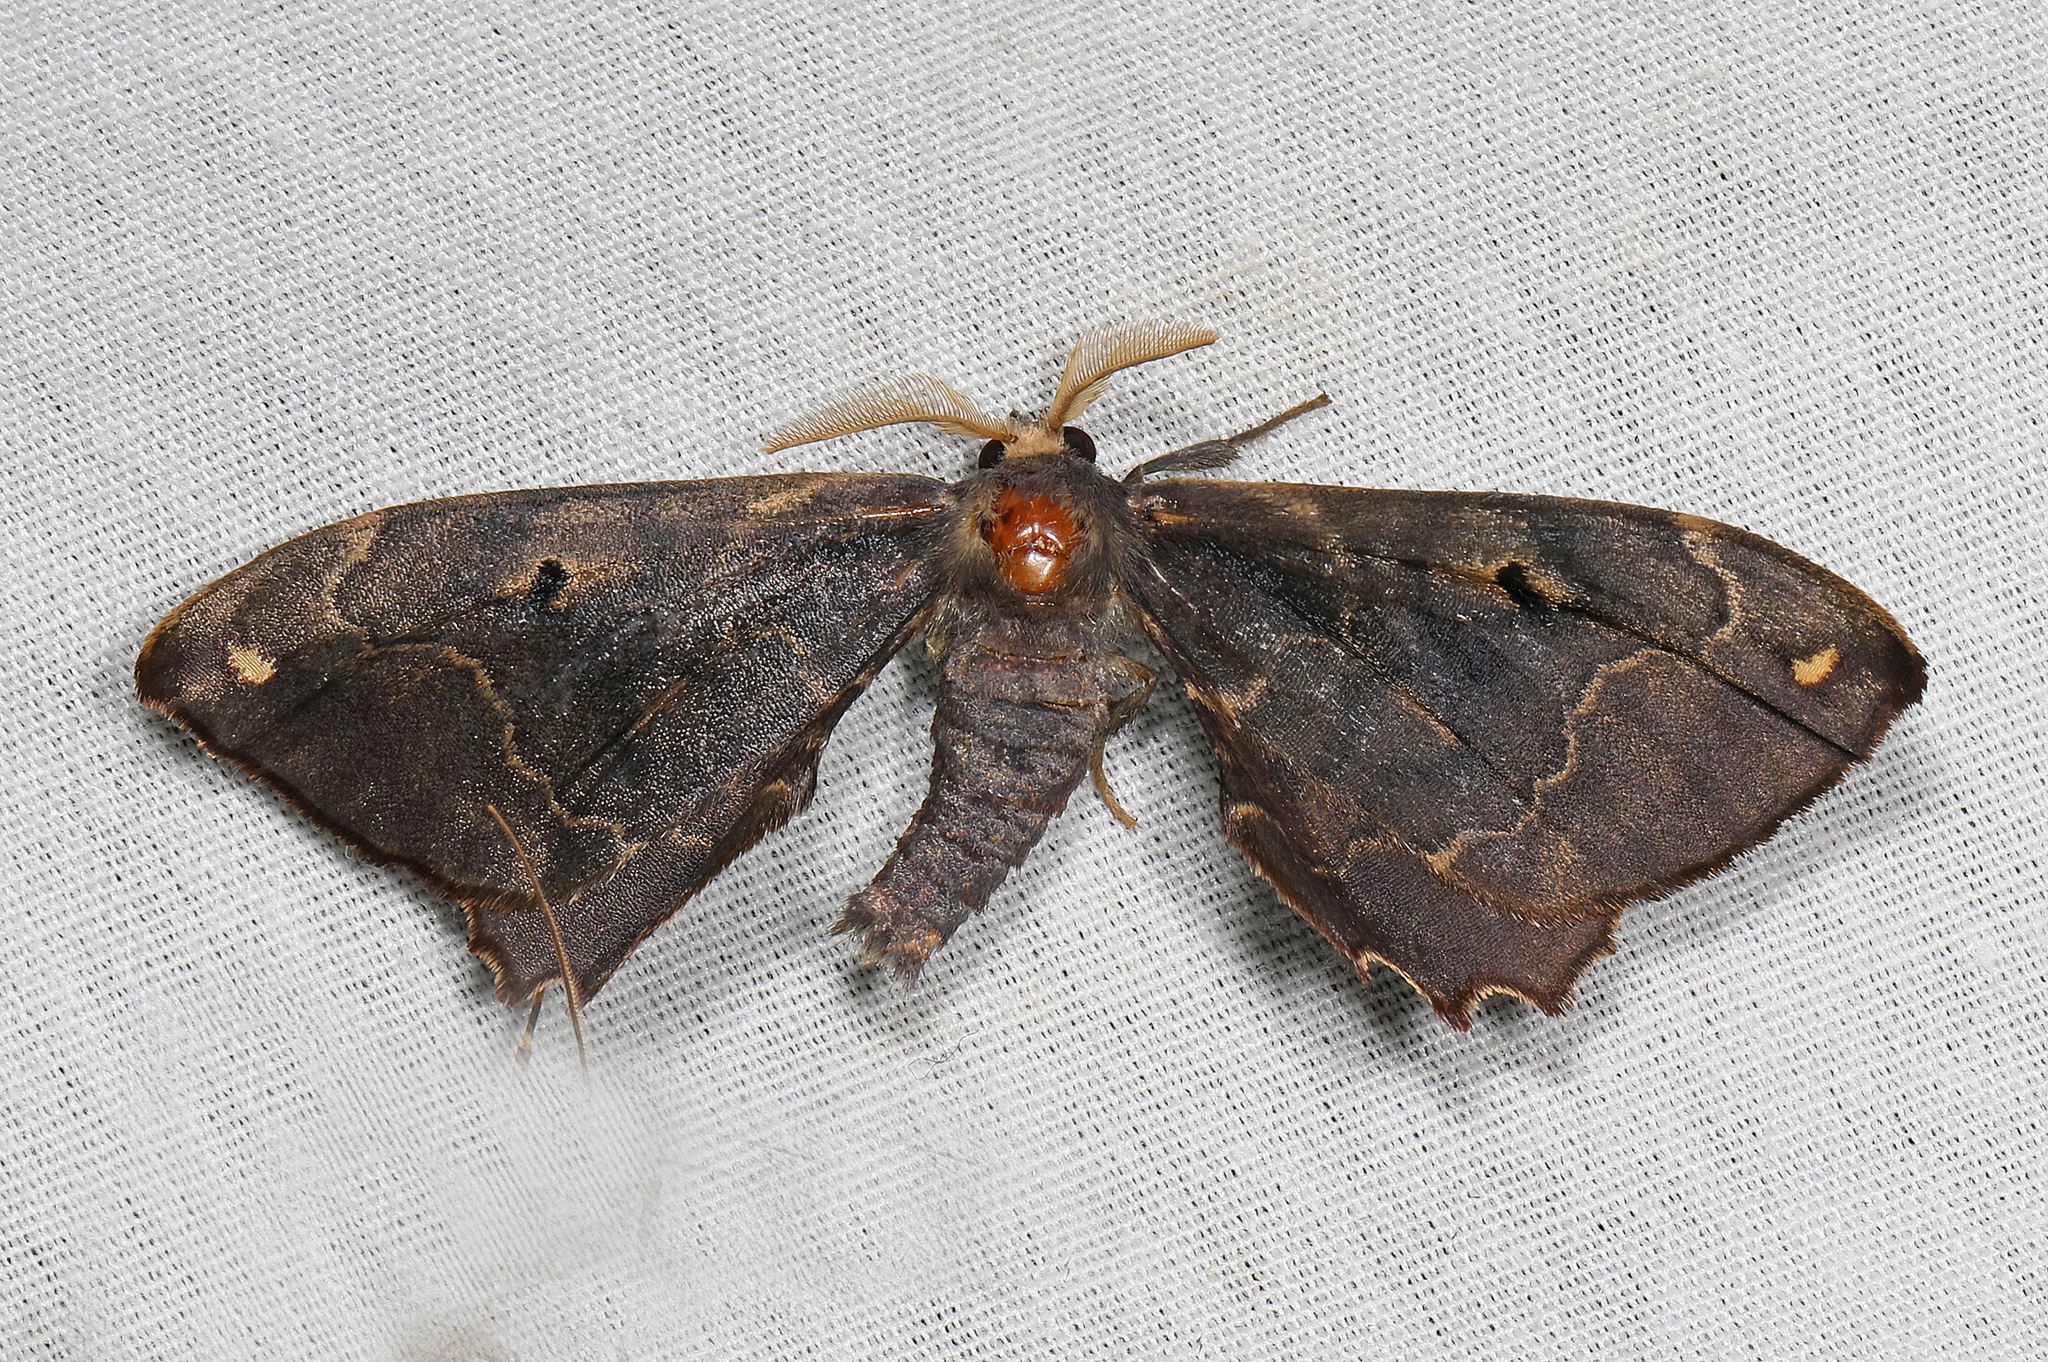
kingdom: Animalia
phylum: Arthropoda
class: Insecta
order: Lepidoptera
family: Phiditiidae
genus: Phiditia
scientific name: Phiditia cuprea
